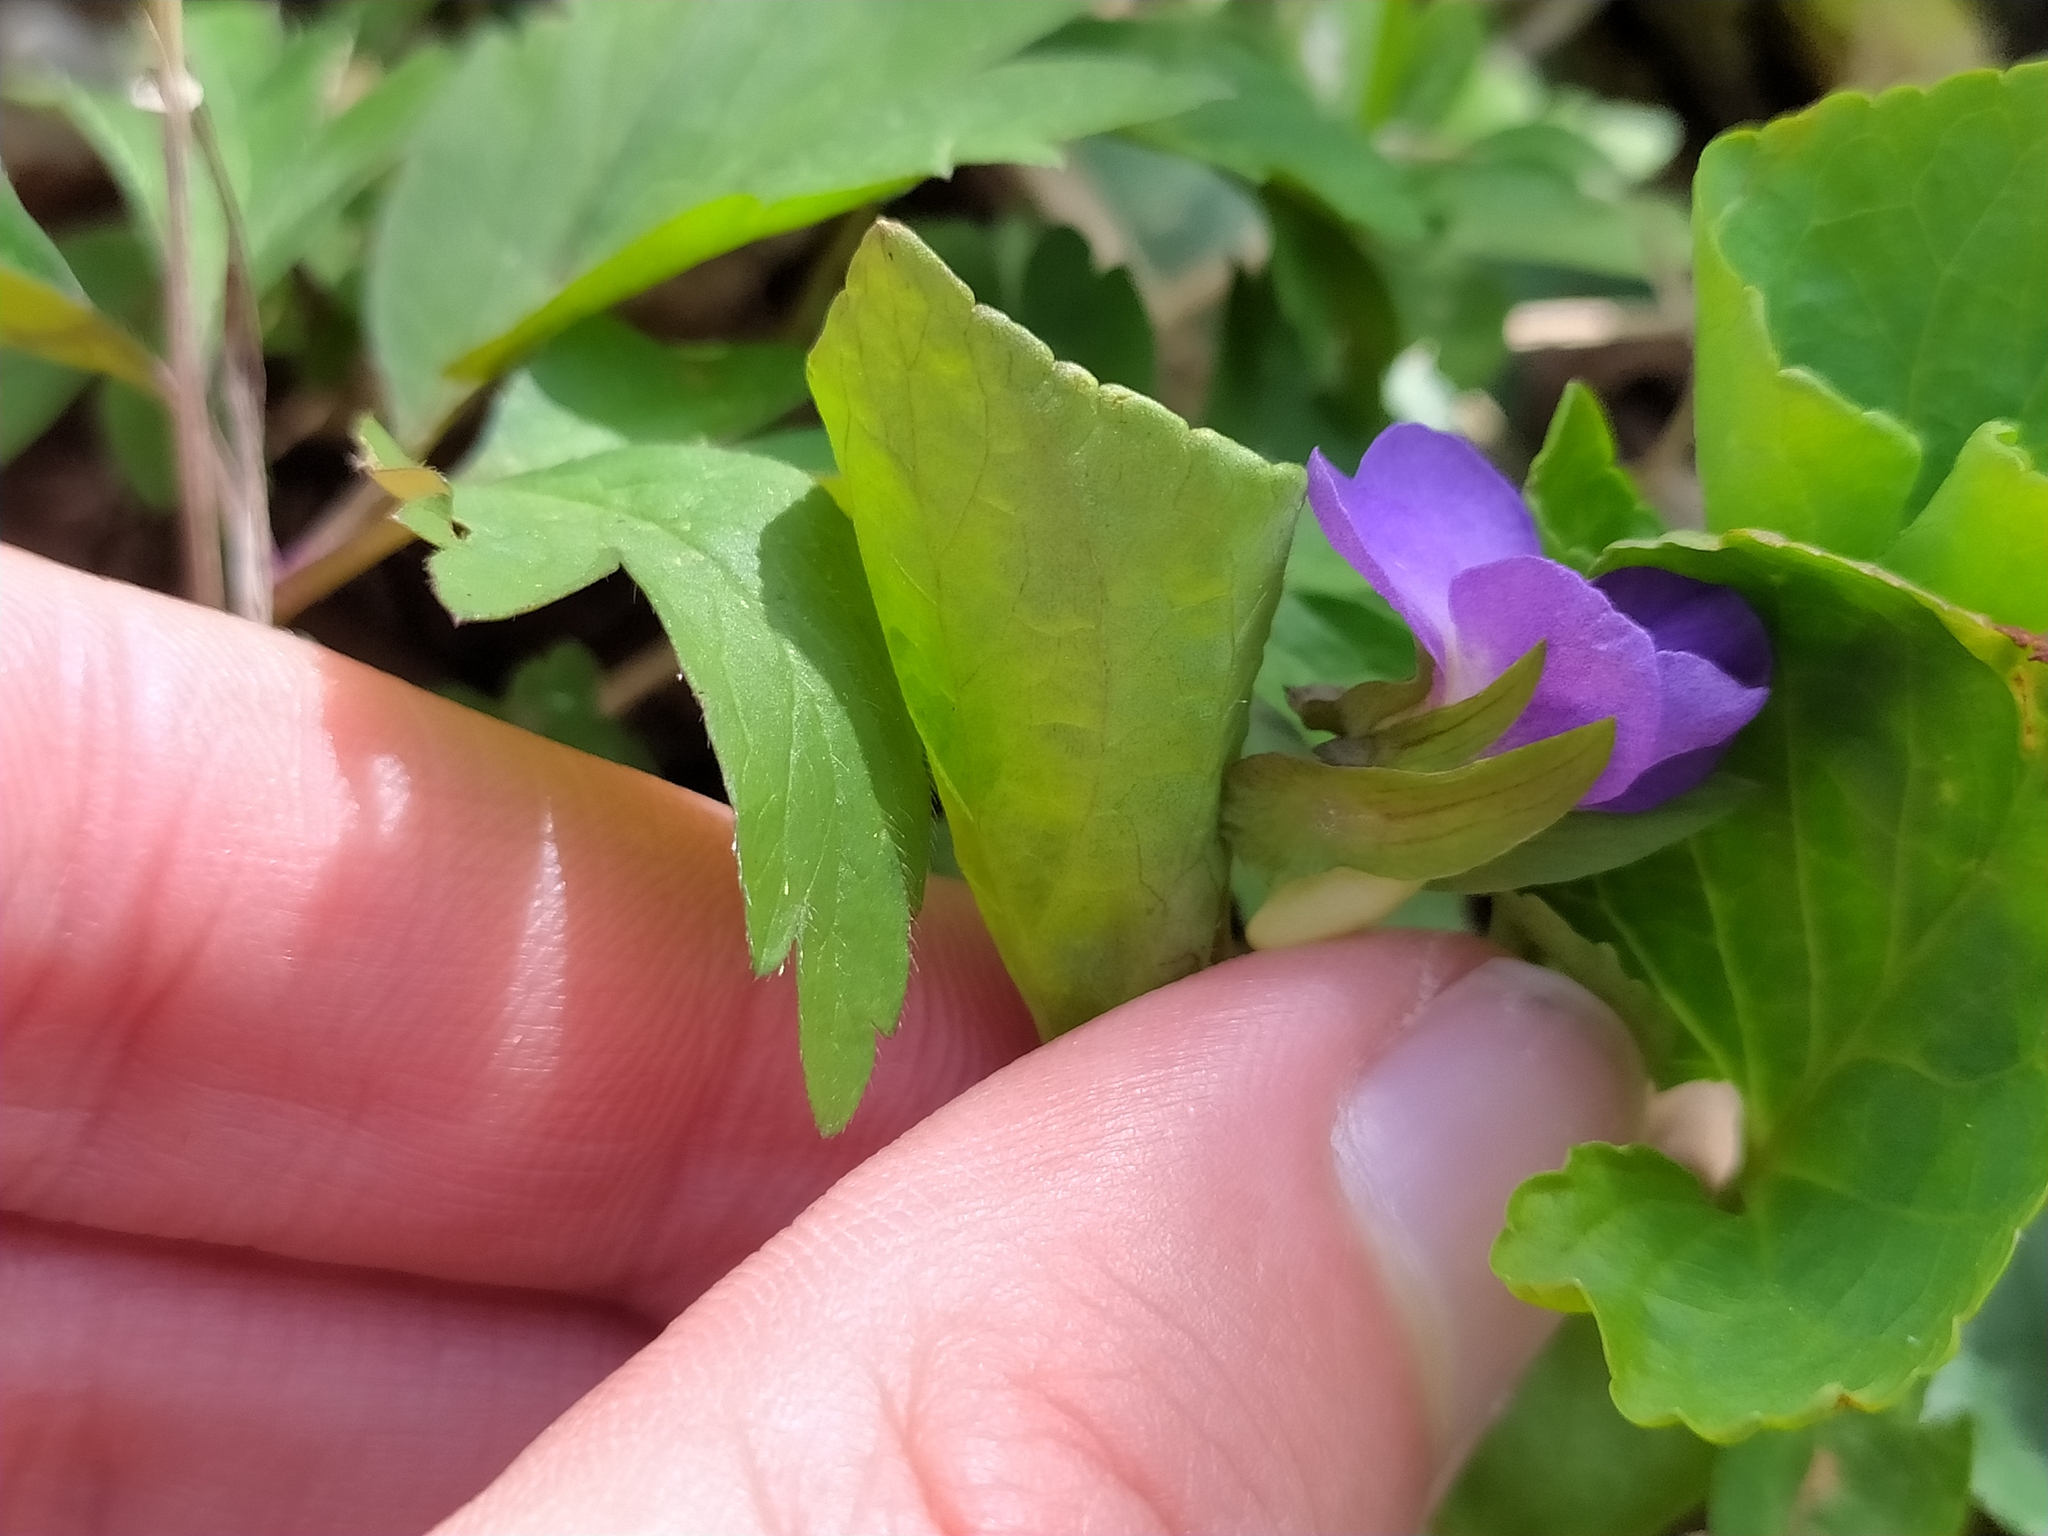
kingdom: Plantae
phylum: Tracheophyta
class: Magnoliopsida
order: Malpighiales
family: Violaceae
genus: Viola
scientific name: Viola mirabilis
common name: Wonder violet
